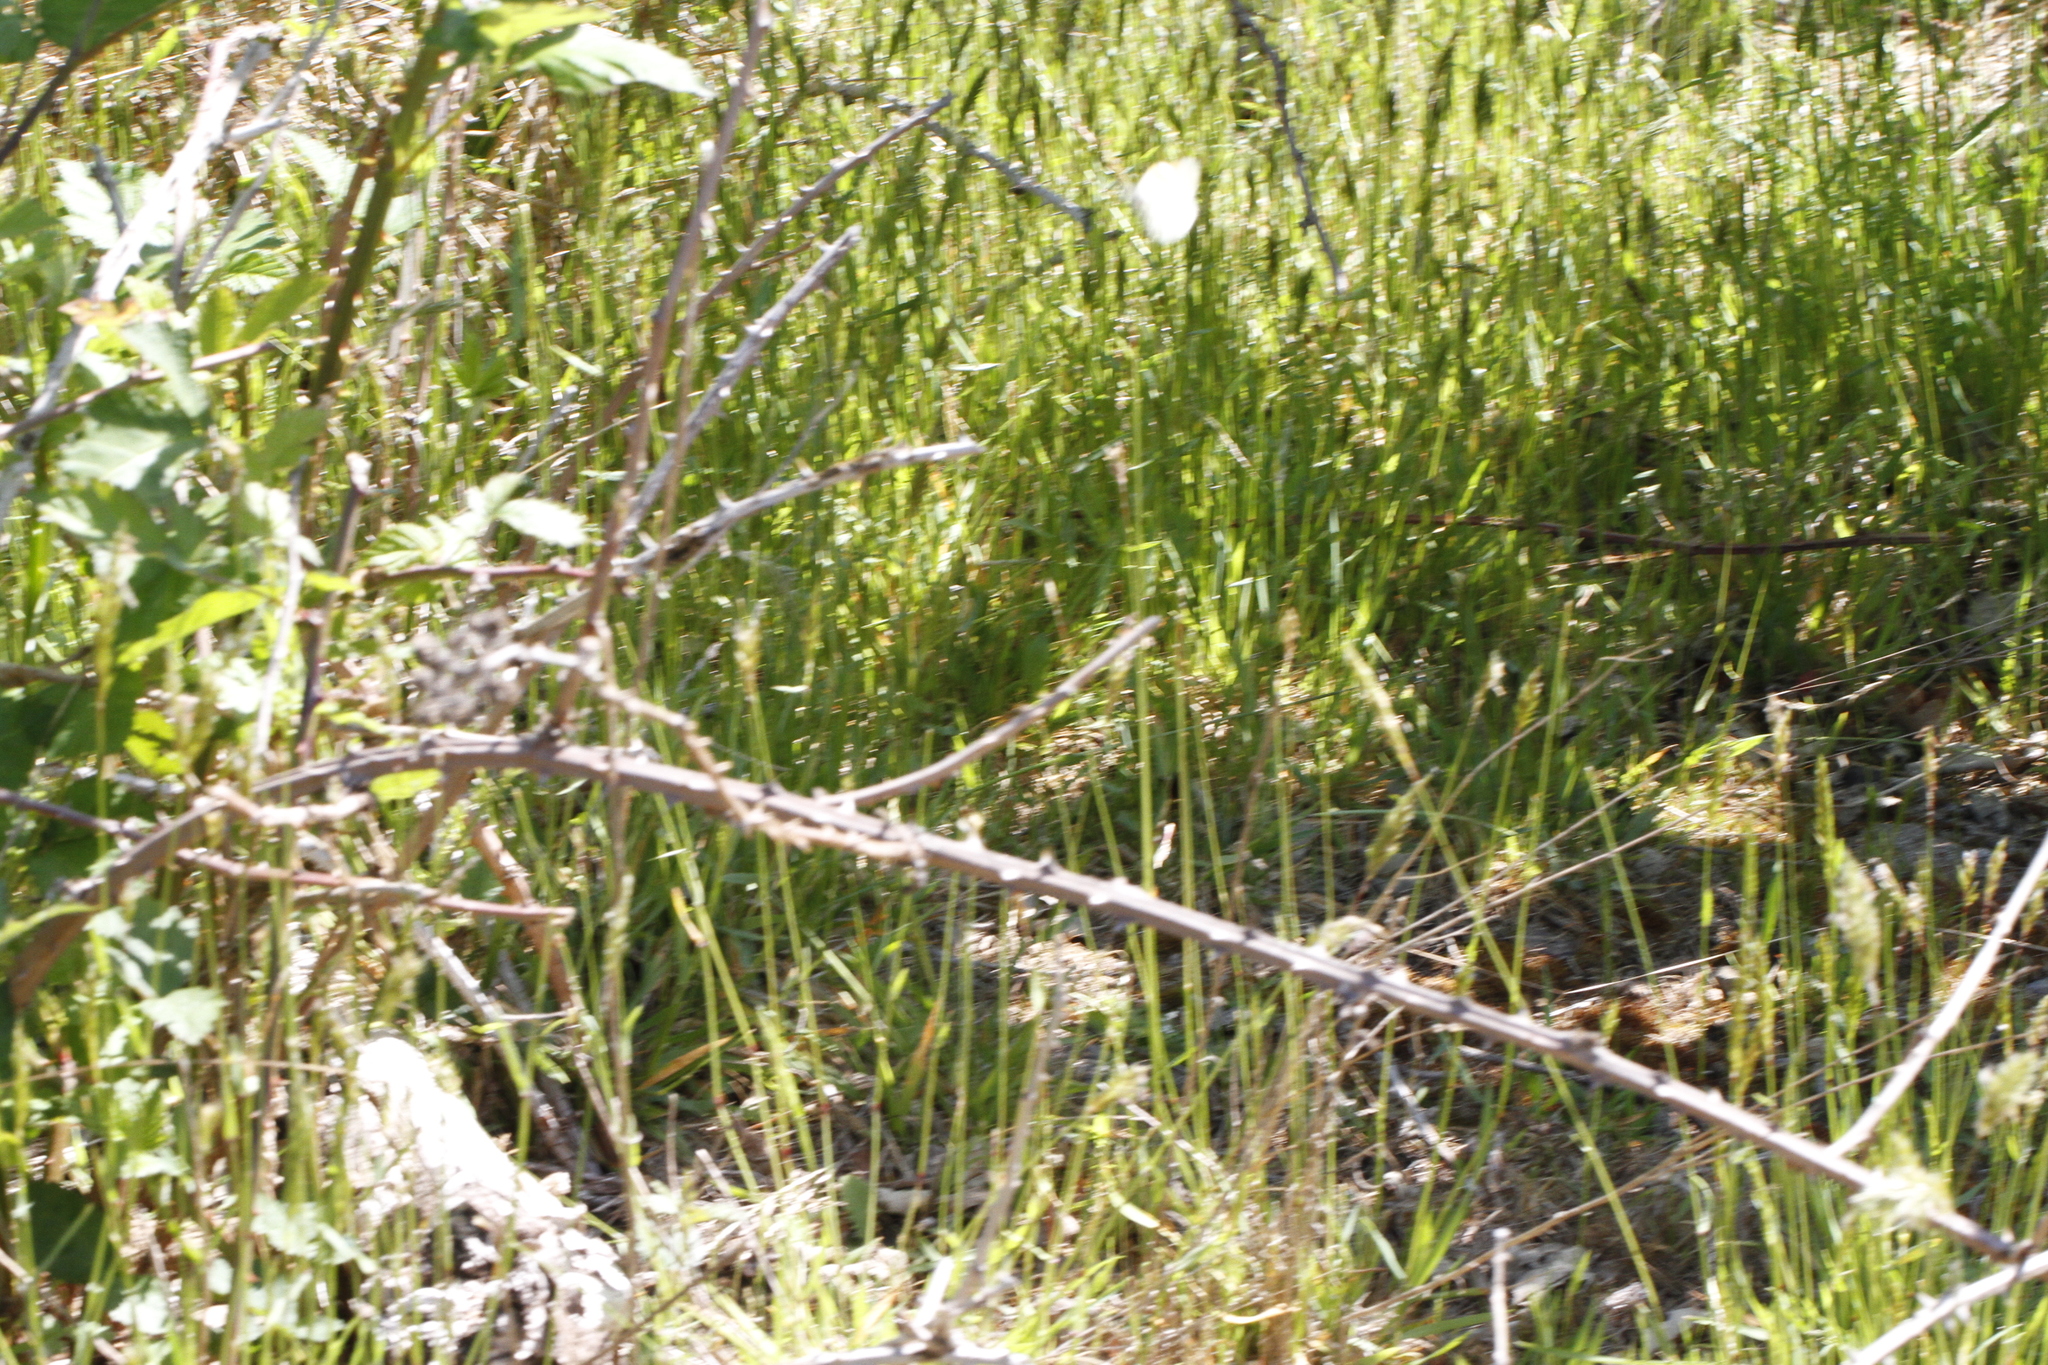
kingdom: Animalia
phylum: Arthropoda
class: Insecta
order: Lepidoptera
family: Pieridae
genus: Anthocharis
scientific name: Anthocharis julia
